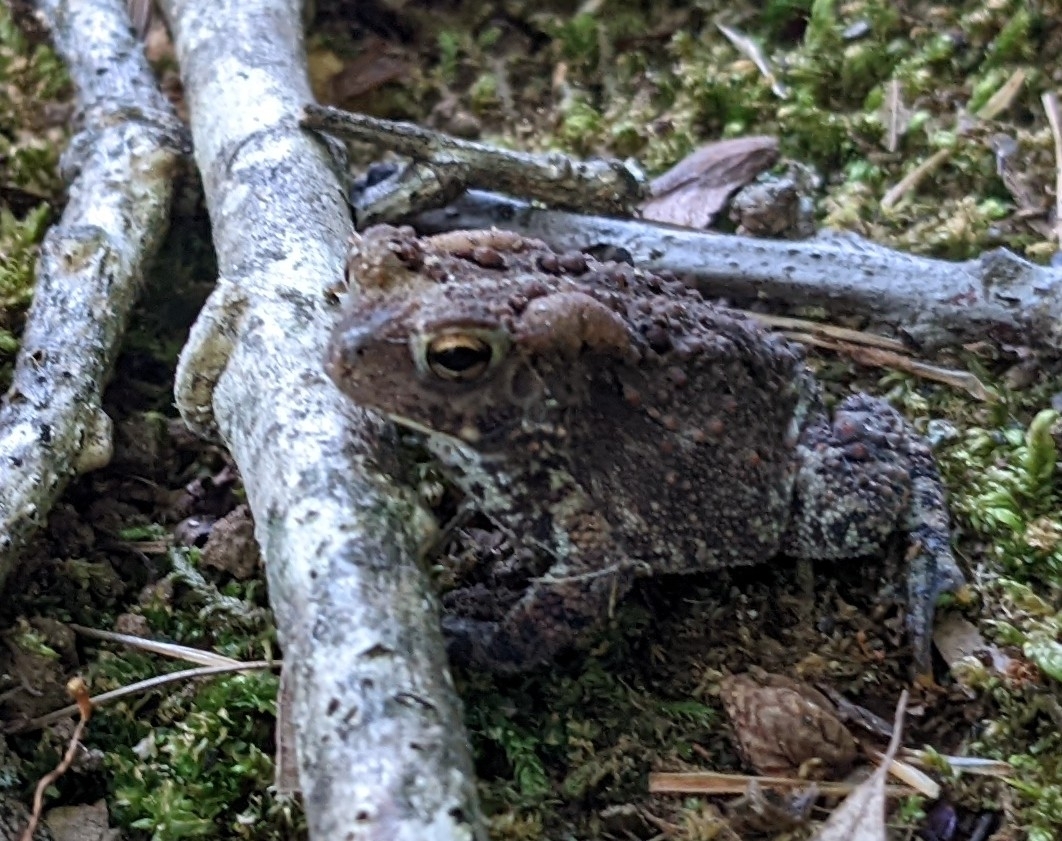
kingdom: Animalia
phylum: Chordata
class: Amphibia
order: Anura
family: Bufonidae
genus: Anaxyrus
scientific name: Anaxyrus americanus
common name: American toad
